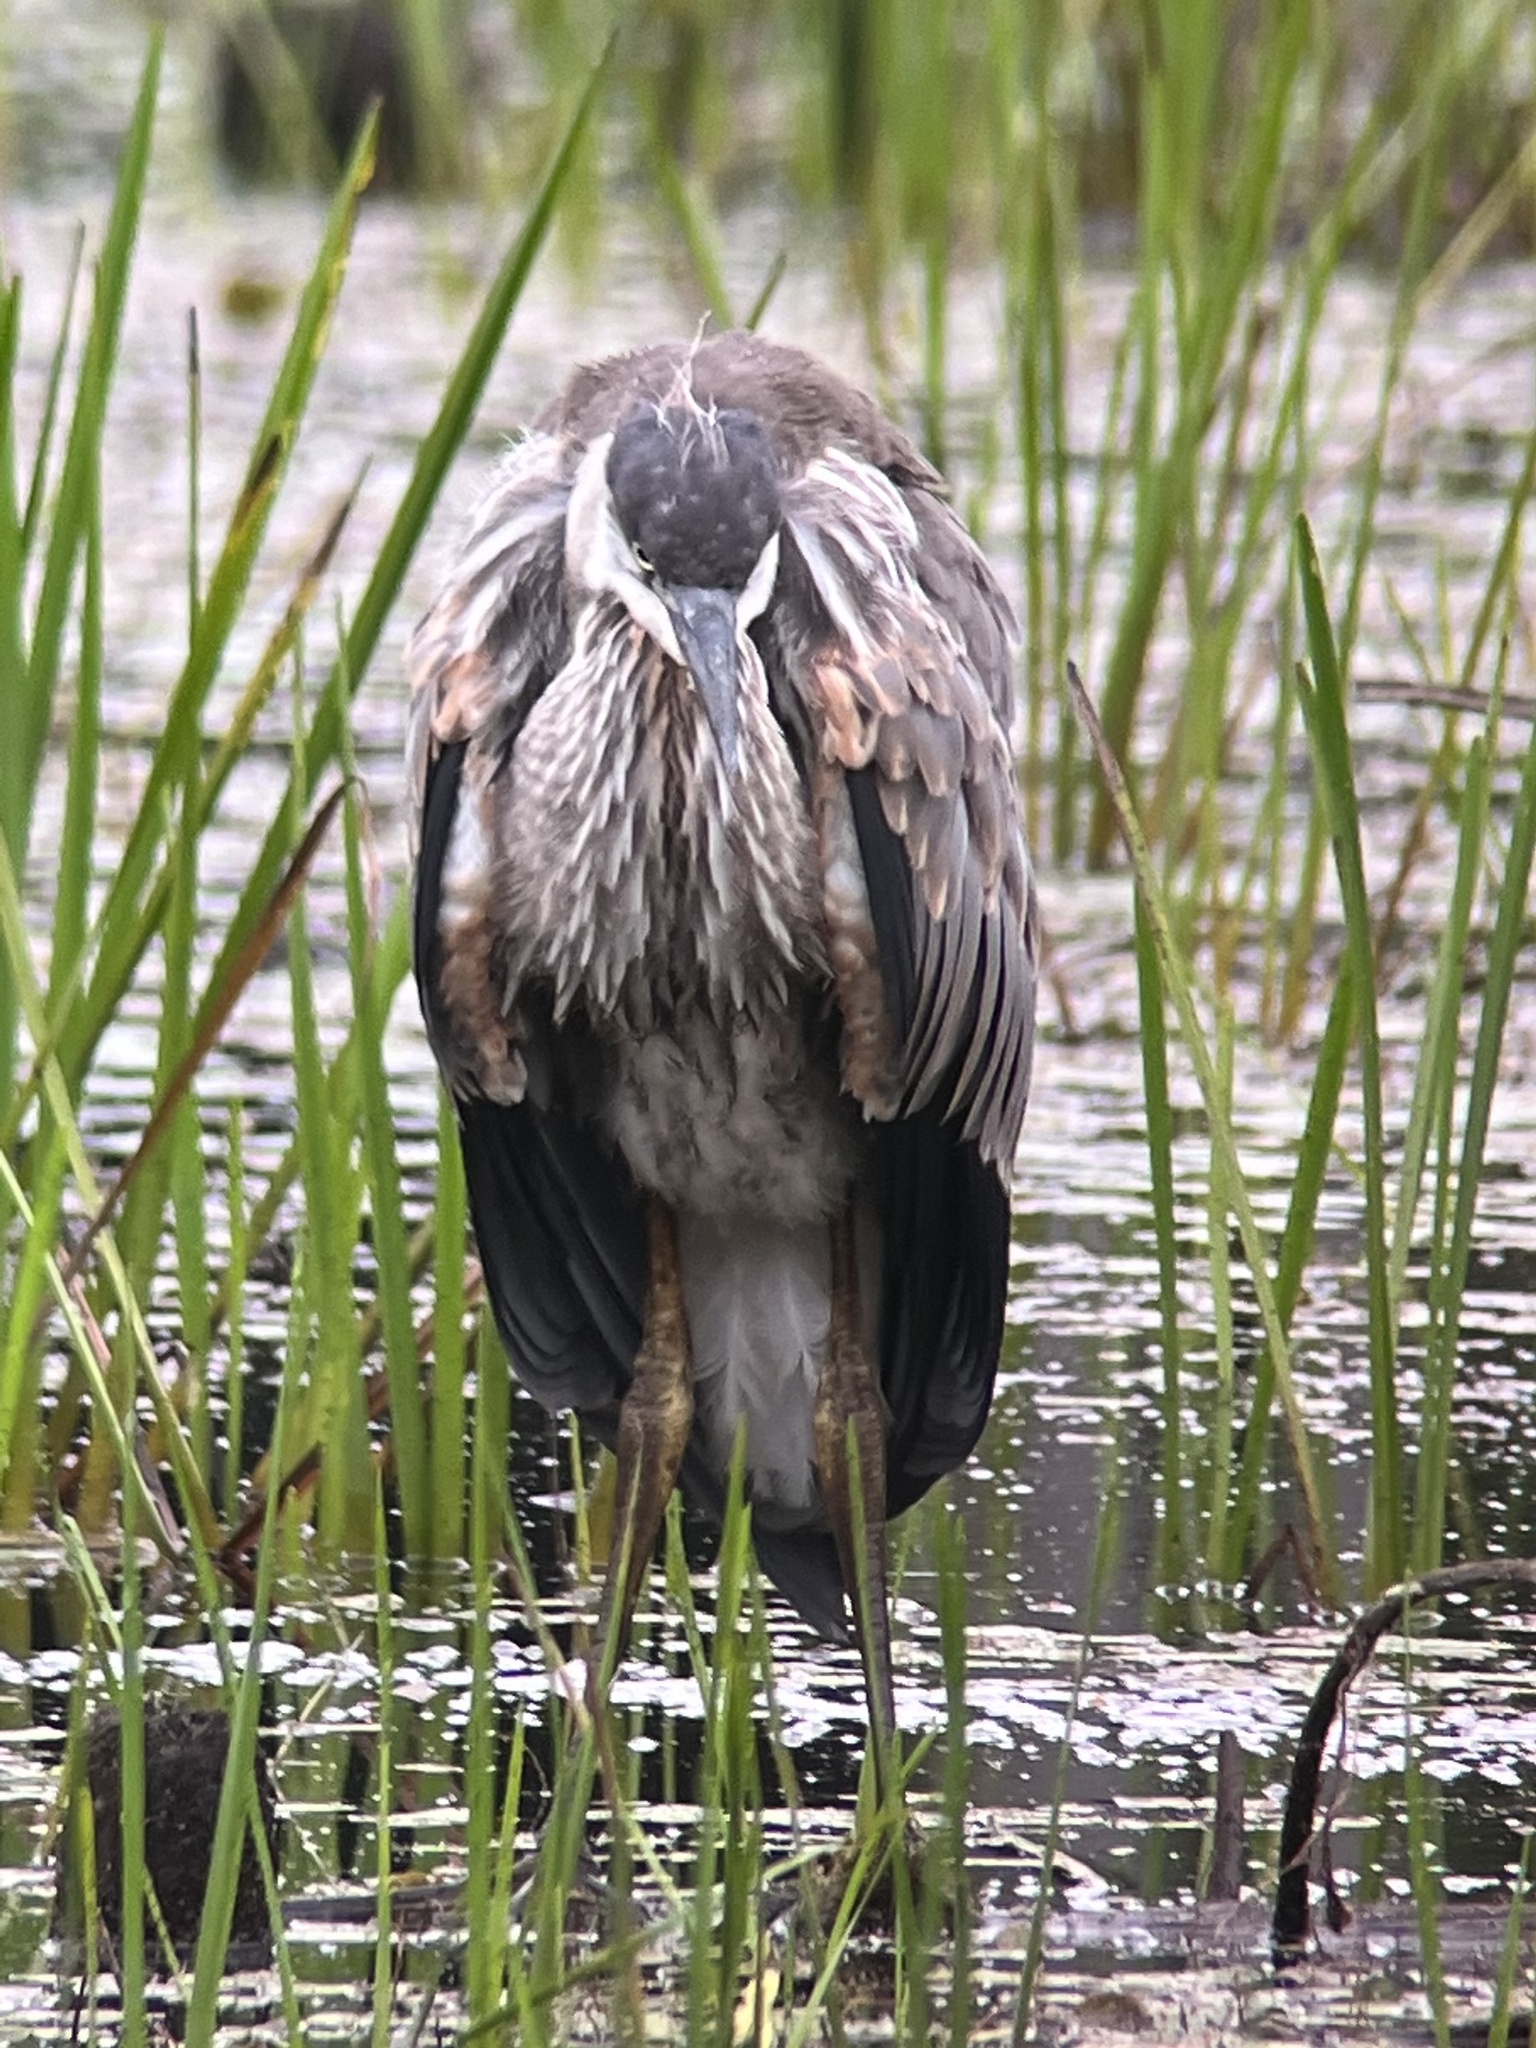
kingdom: Animalia
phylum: Chordata
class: Aves
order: Pelecaniformes
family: Ardeidae
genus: Ardea
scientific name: Ardea herodias
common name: Great blue heron
